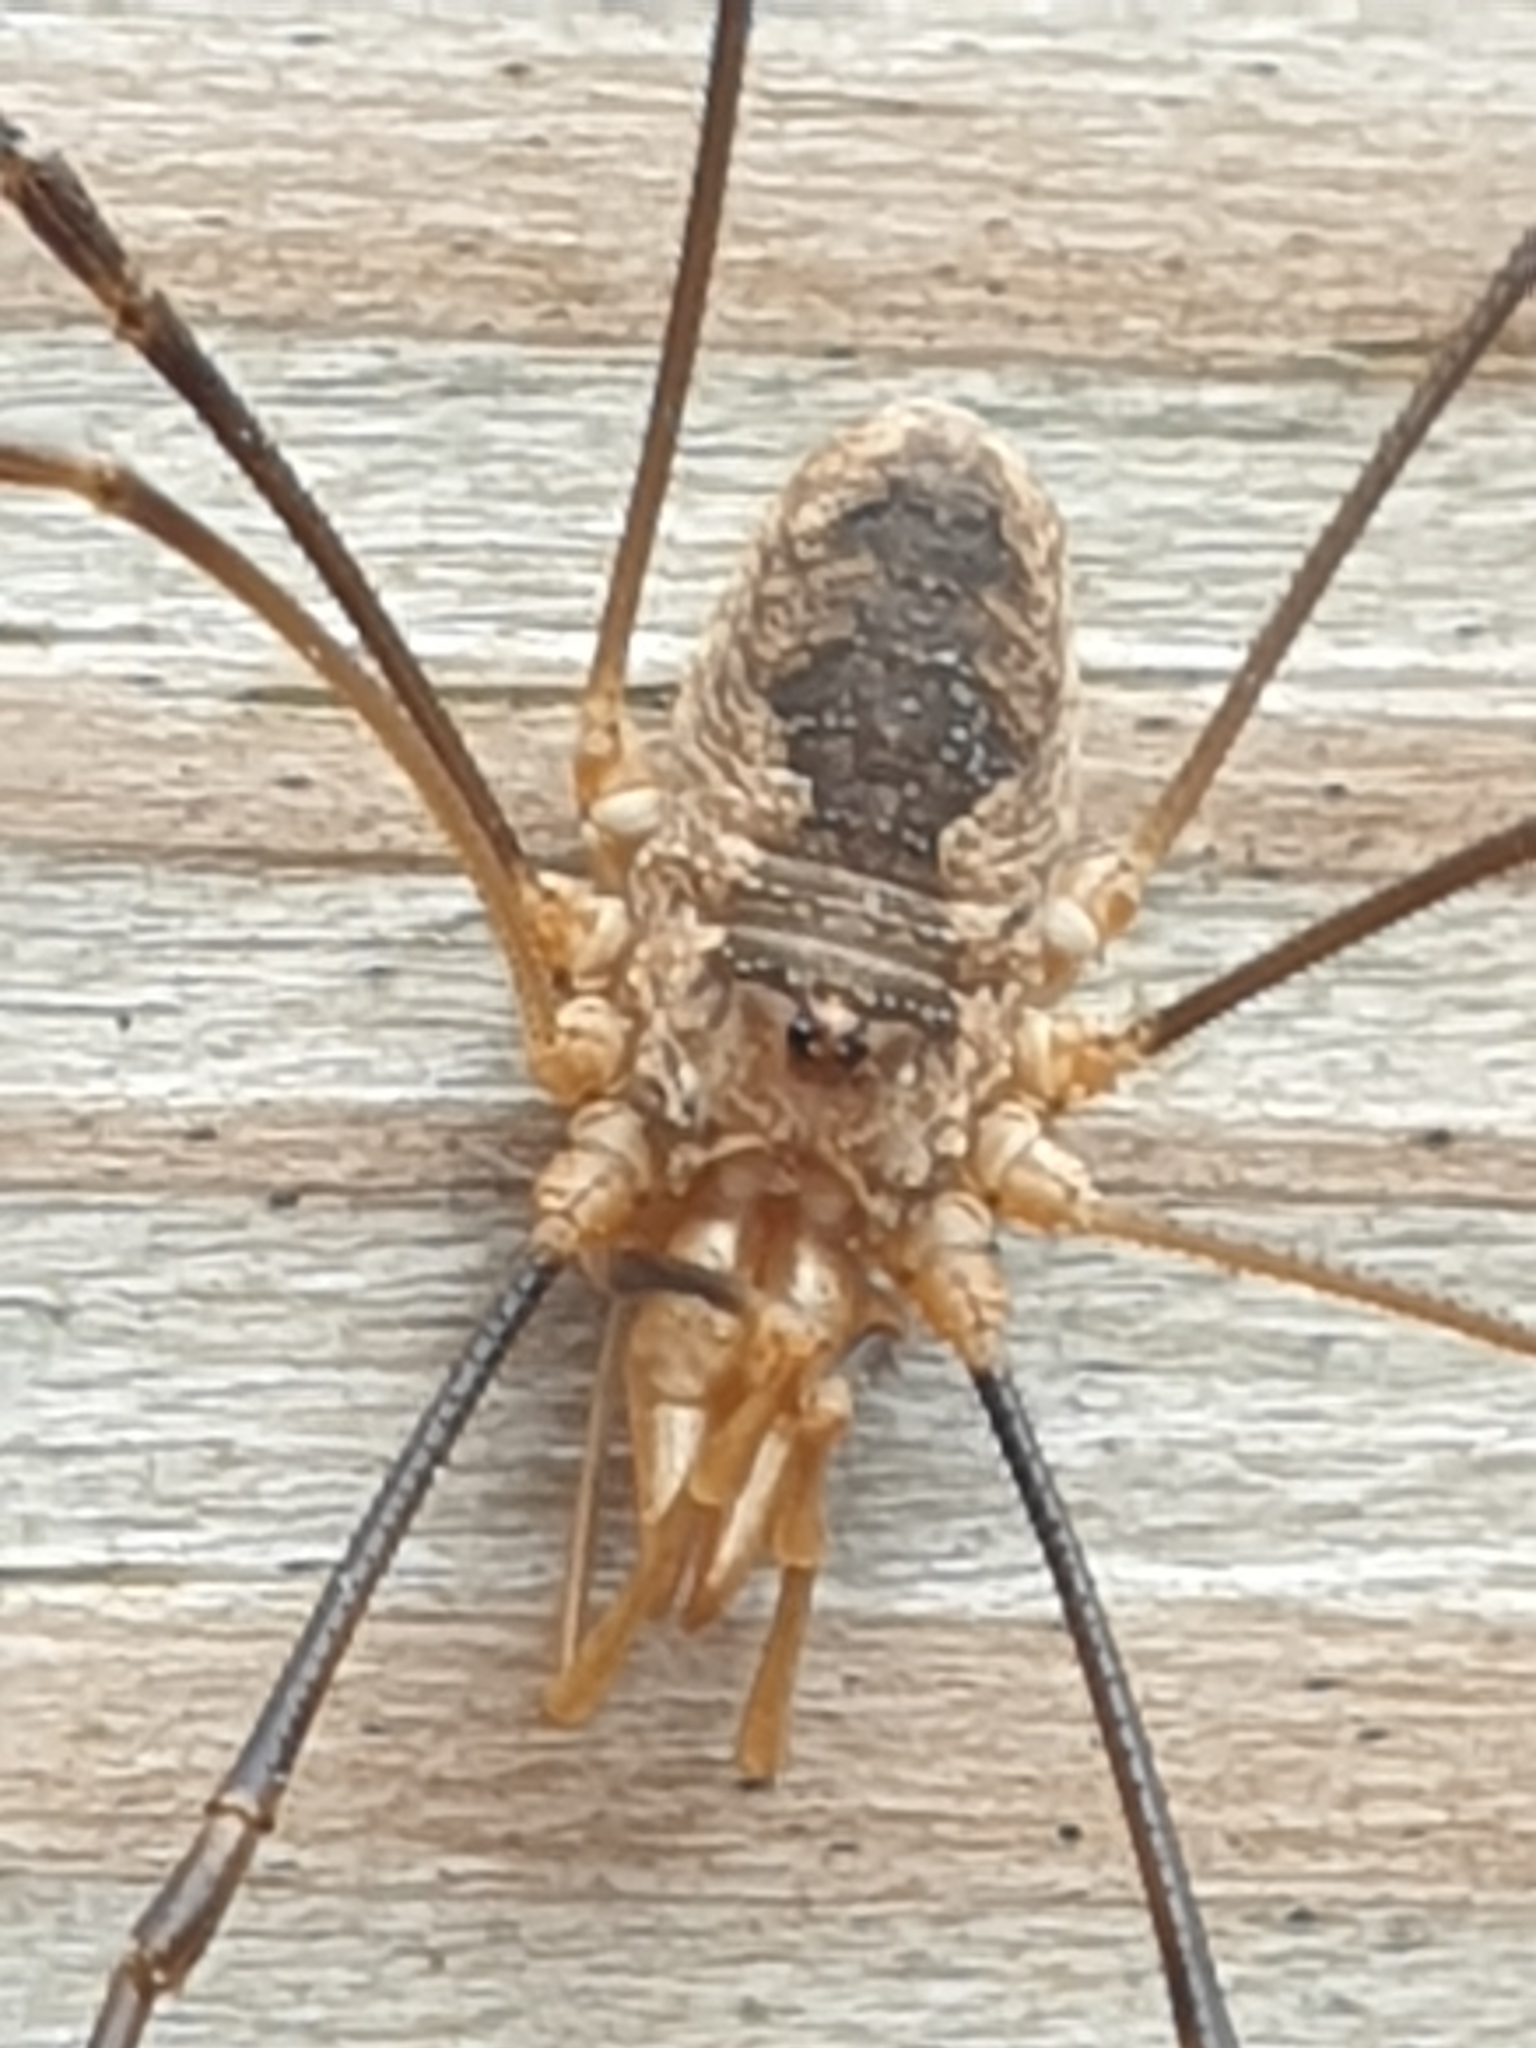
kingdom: Animalia
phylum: Arthropoda
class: Arachnida
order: Opiliones
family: Phalangiidae
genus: Phalangium
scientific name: Phalangium opilio
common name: Daddy longleg
